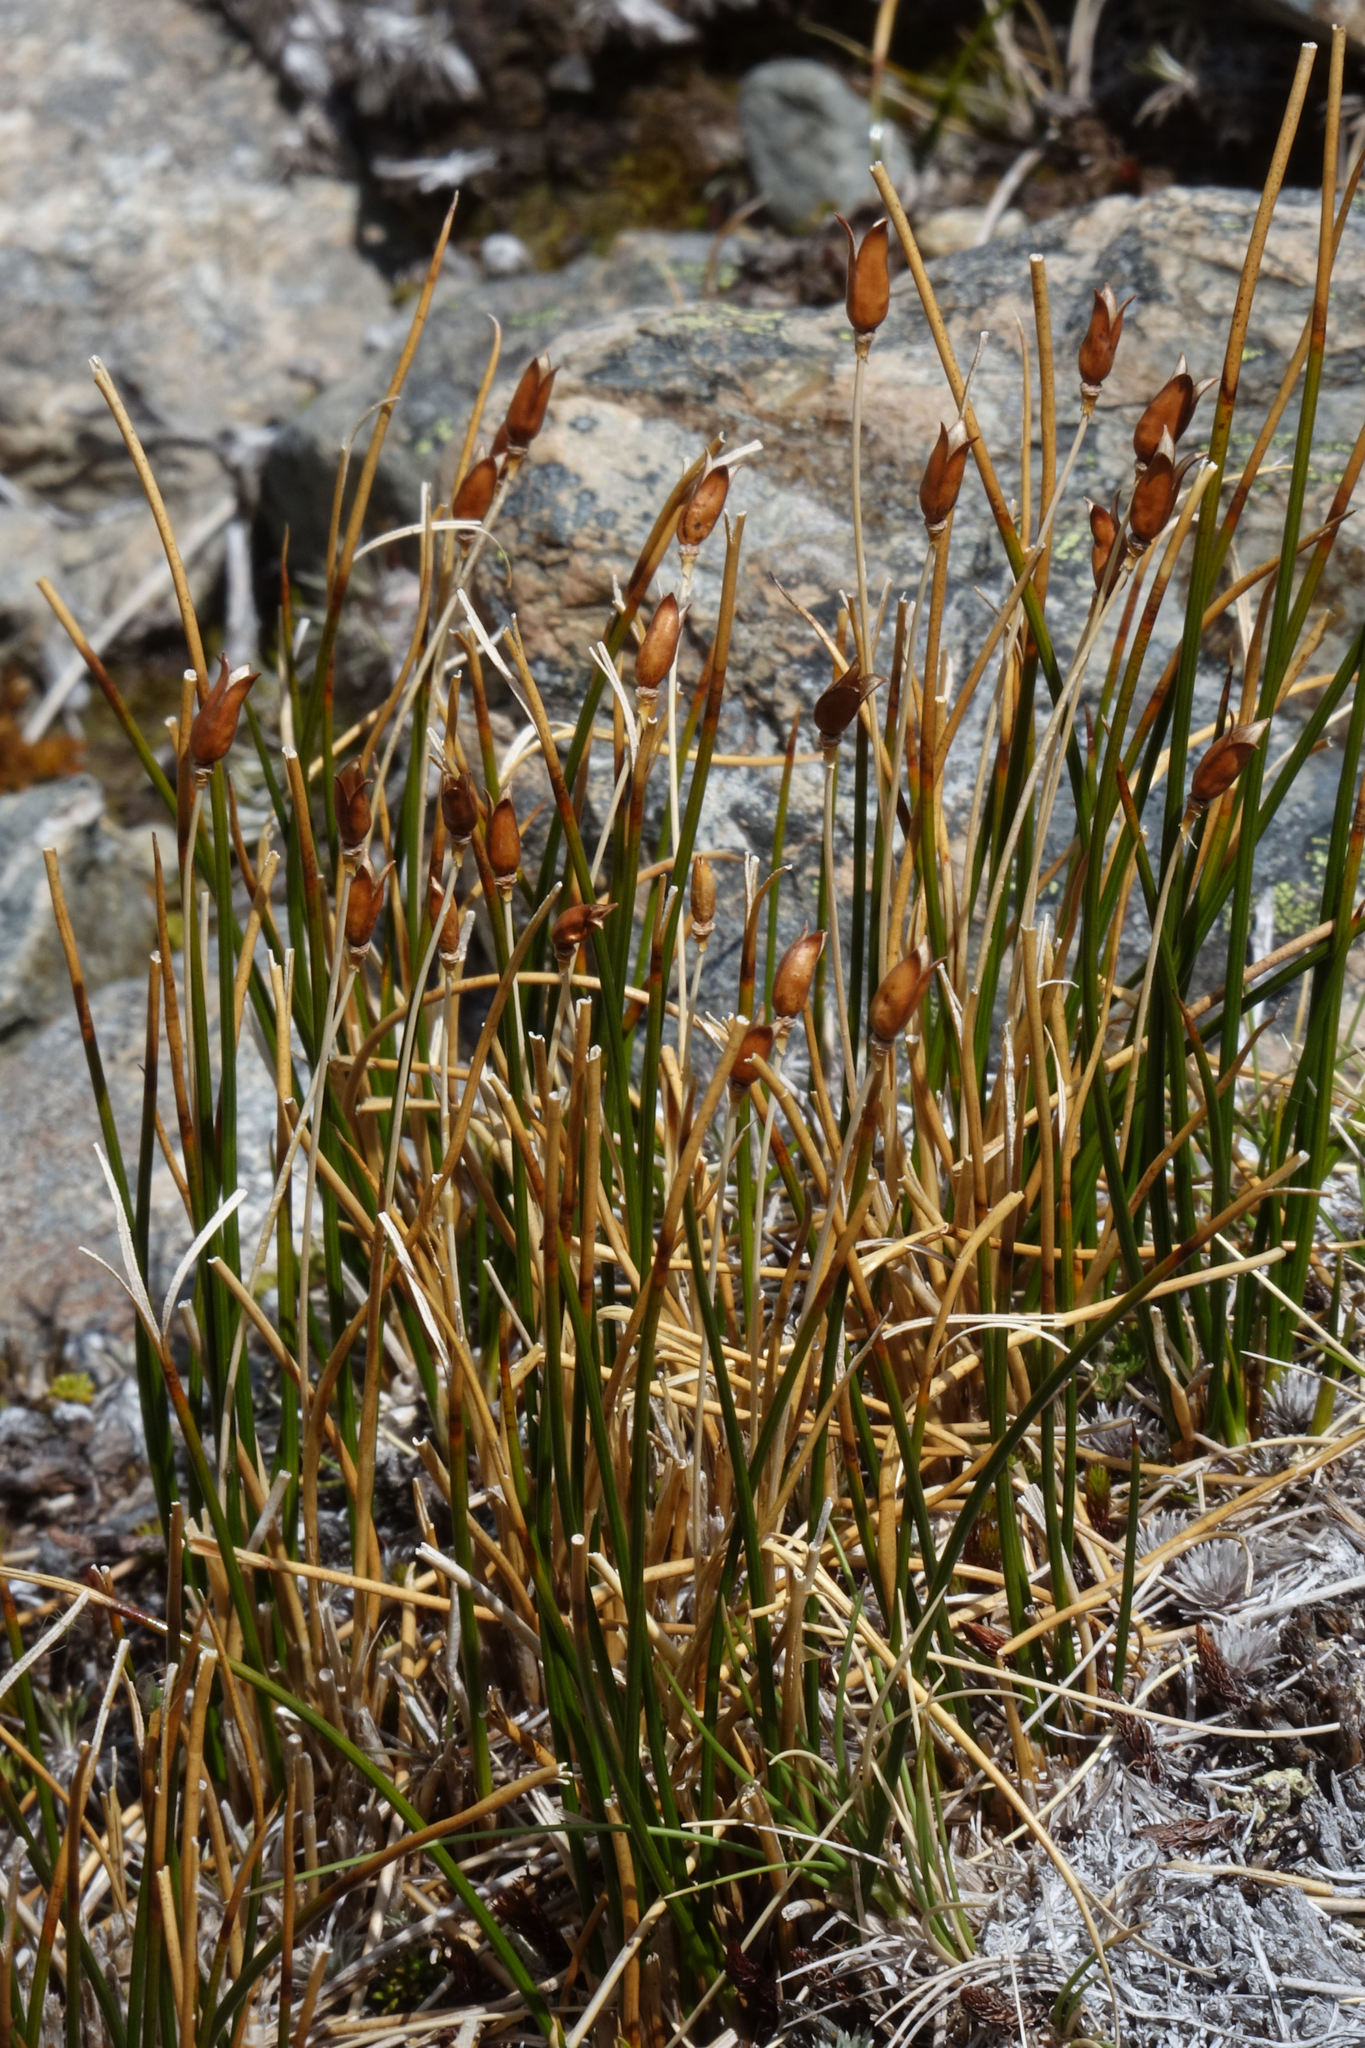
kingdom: Plantae
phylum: Tracheophyta
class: Liliopsida
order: Poales
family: Juncaceae
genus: Marsippospermum
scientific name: Marsippospermum gracile
